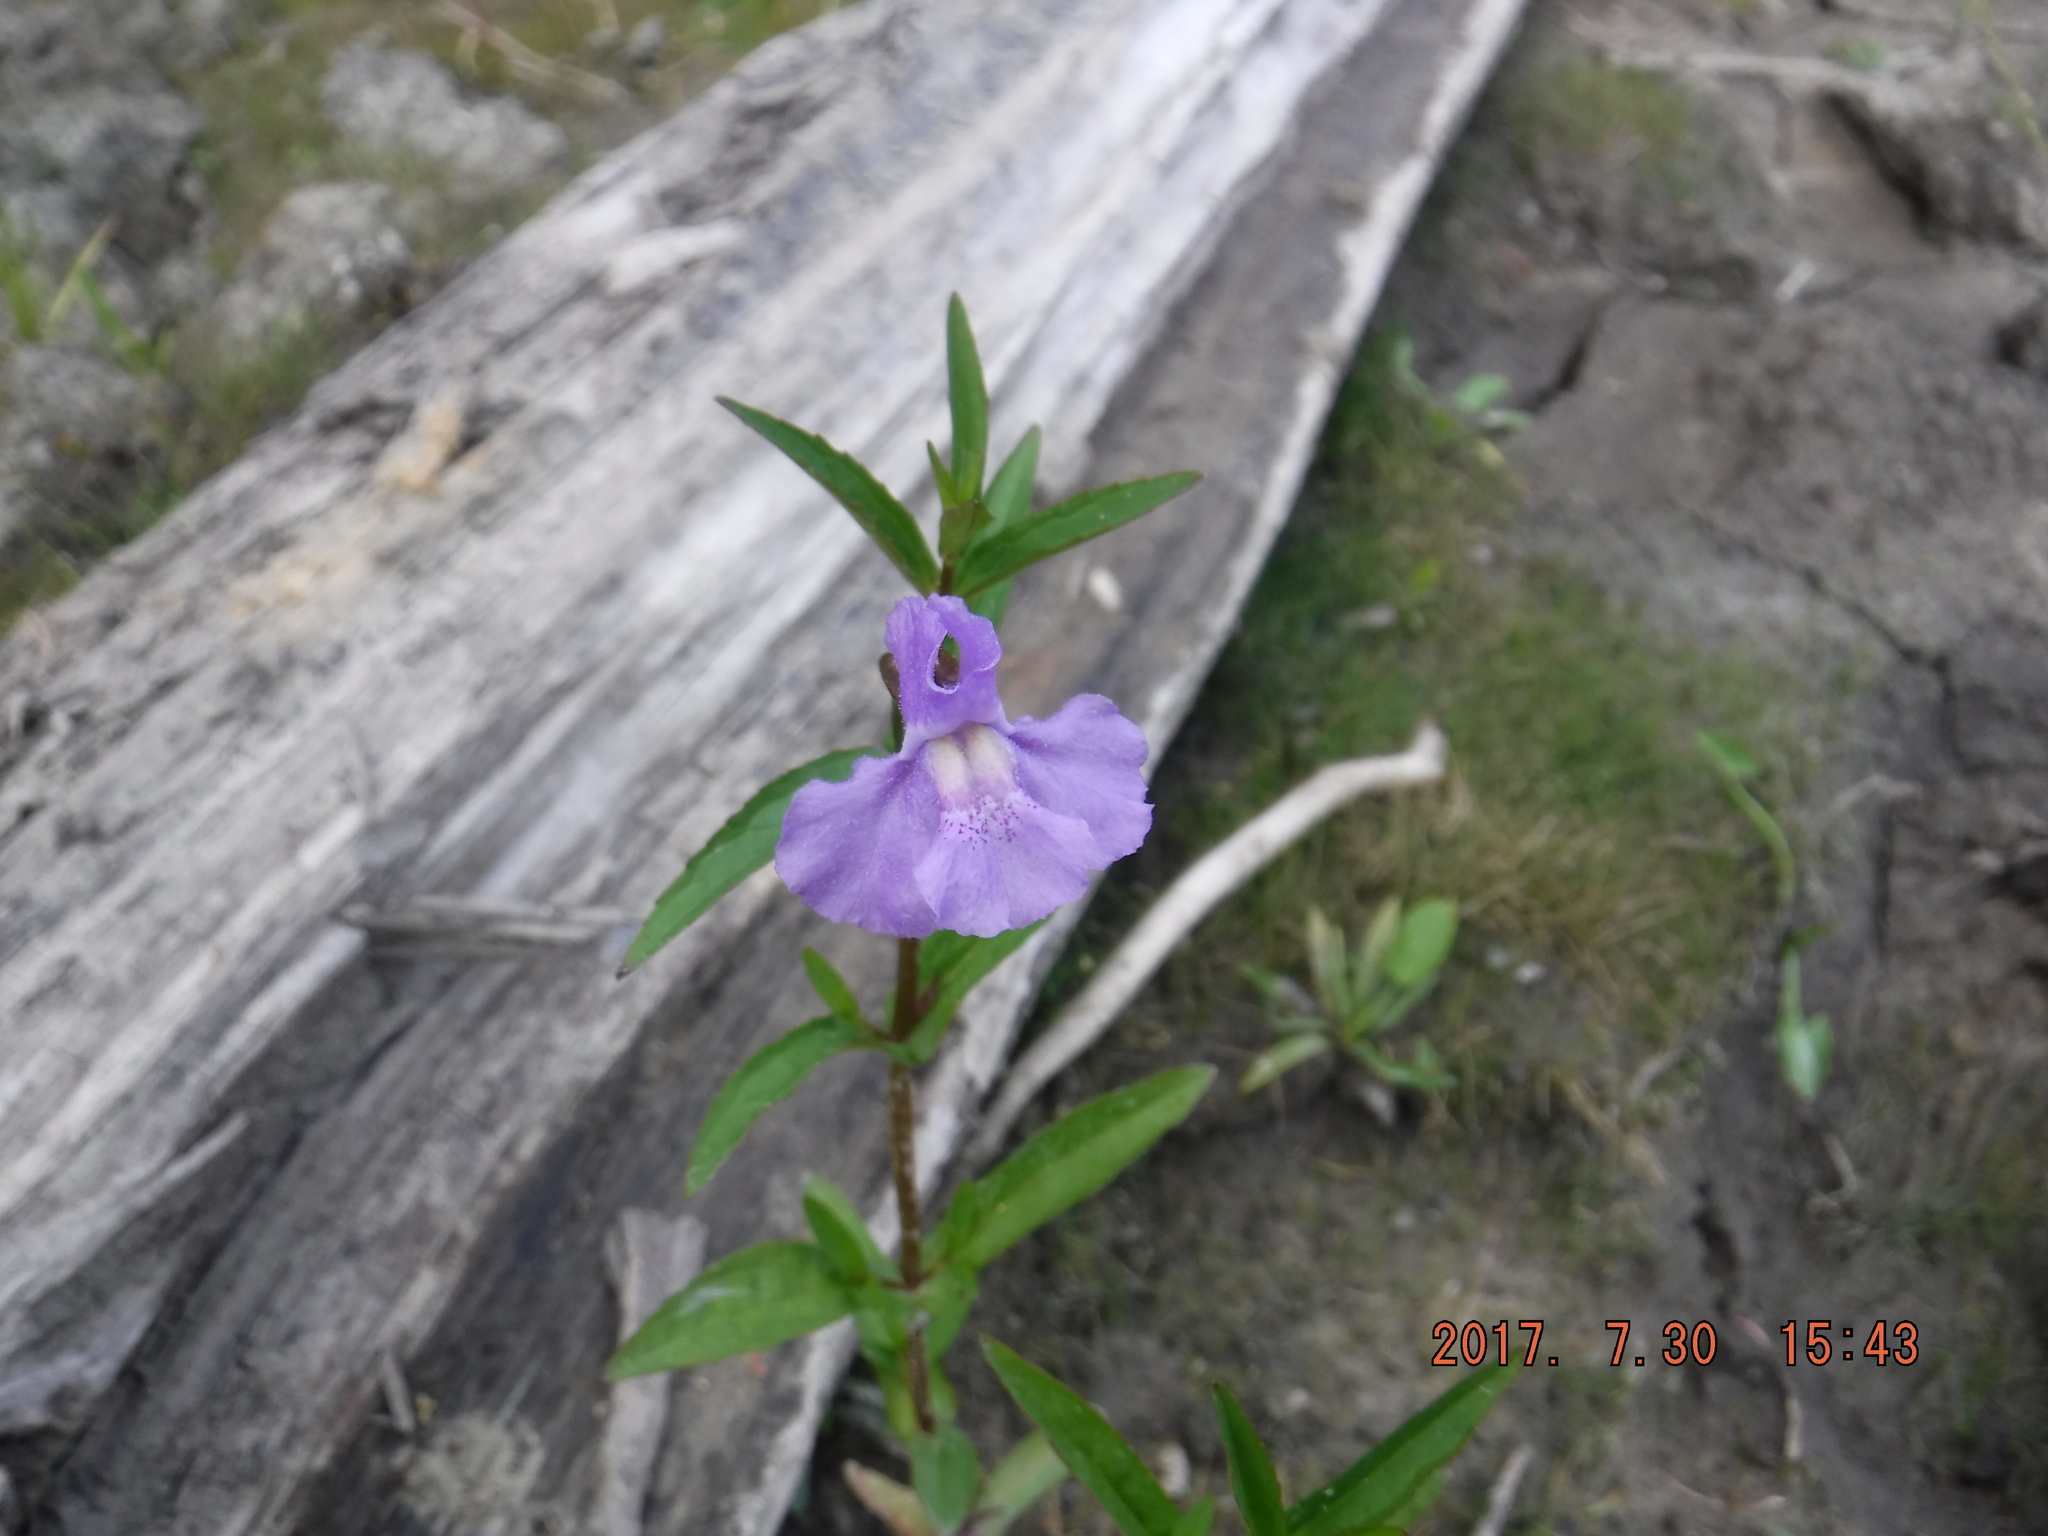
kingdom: Plantae
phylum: Tracheophyta
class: Magnoliopsida
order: Lamiales
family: Phrymaceae
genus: Mimulus
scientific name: Mimulus ringens
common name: Allegheny monkeyflower
